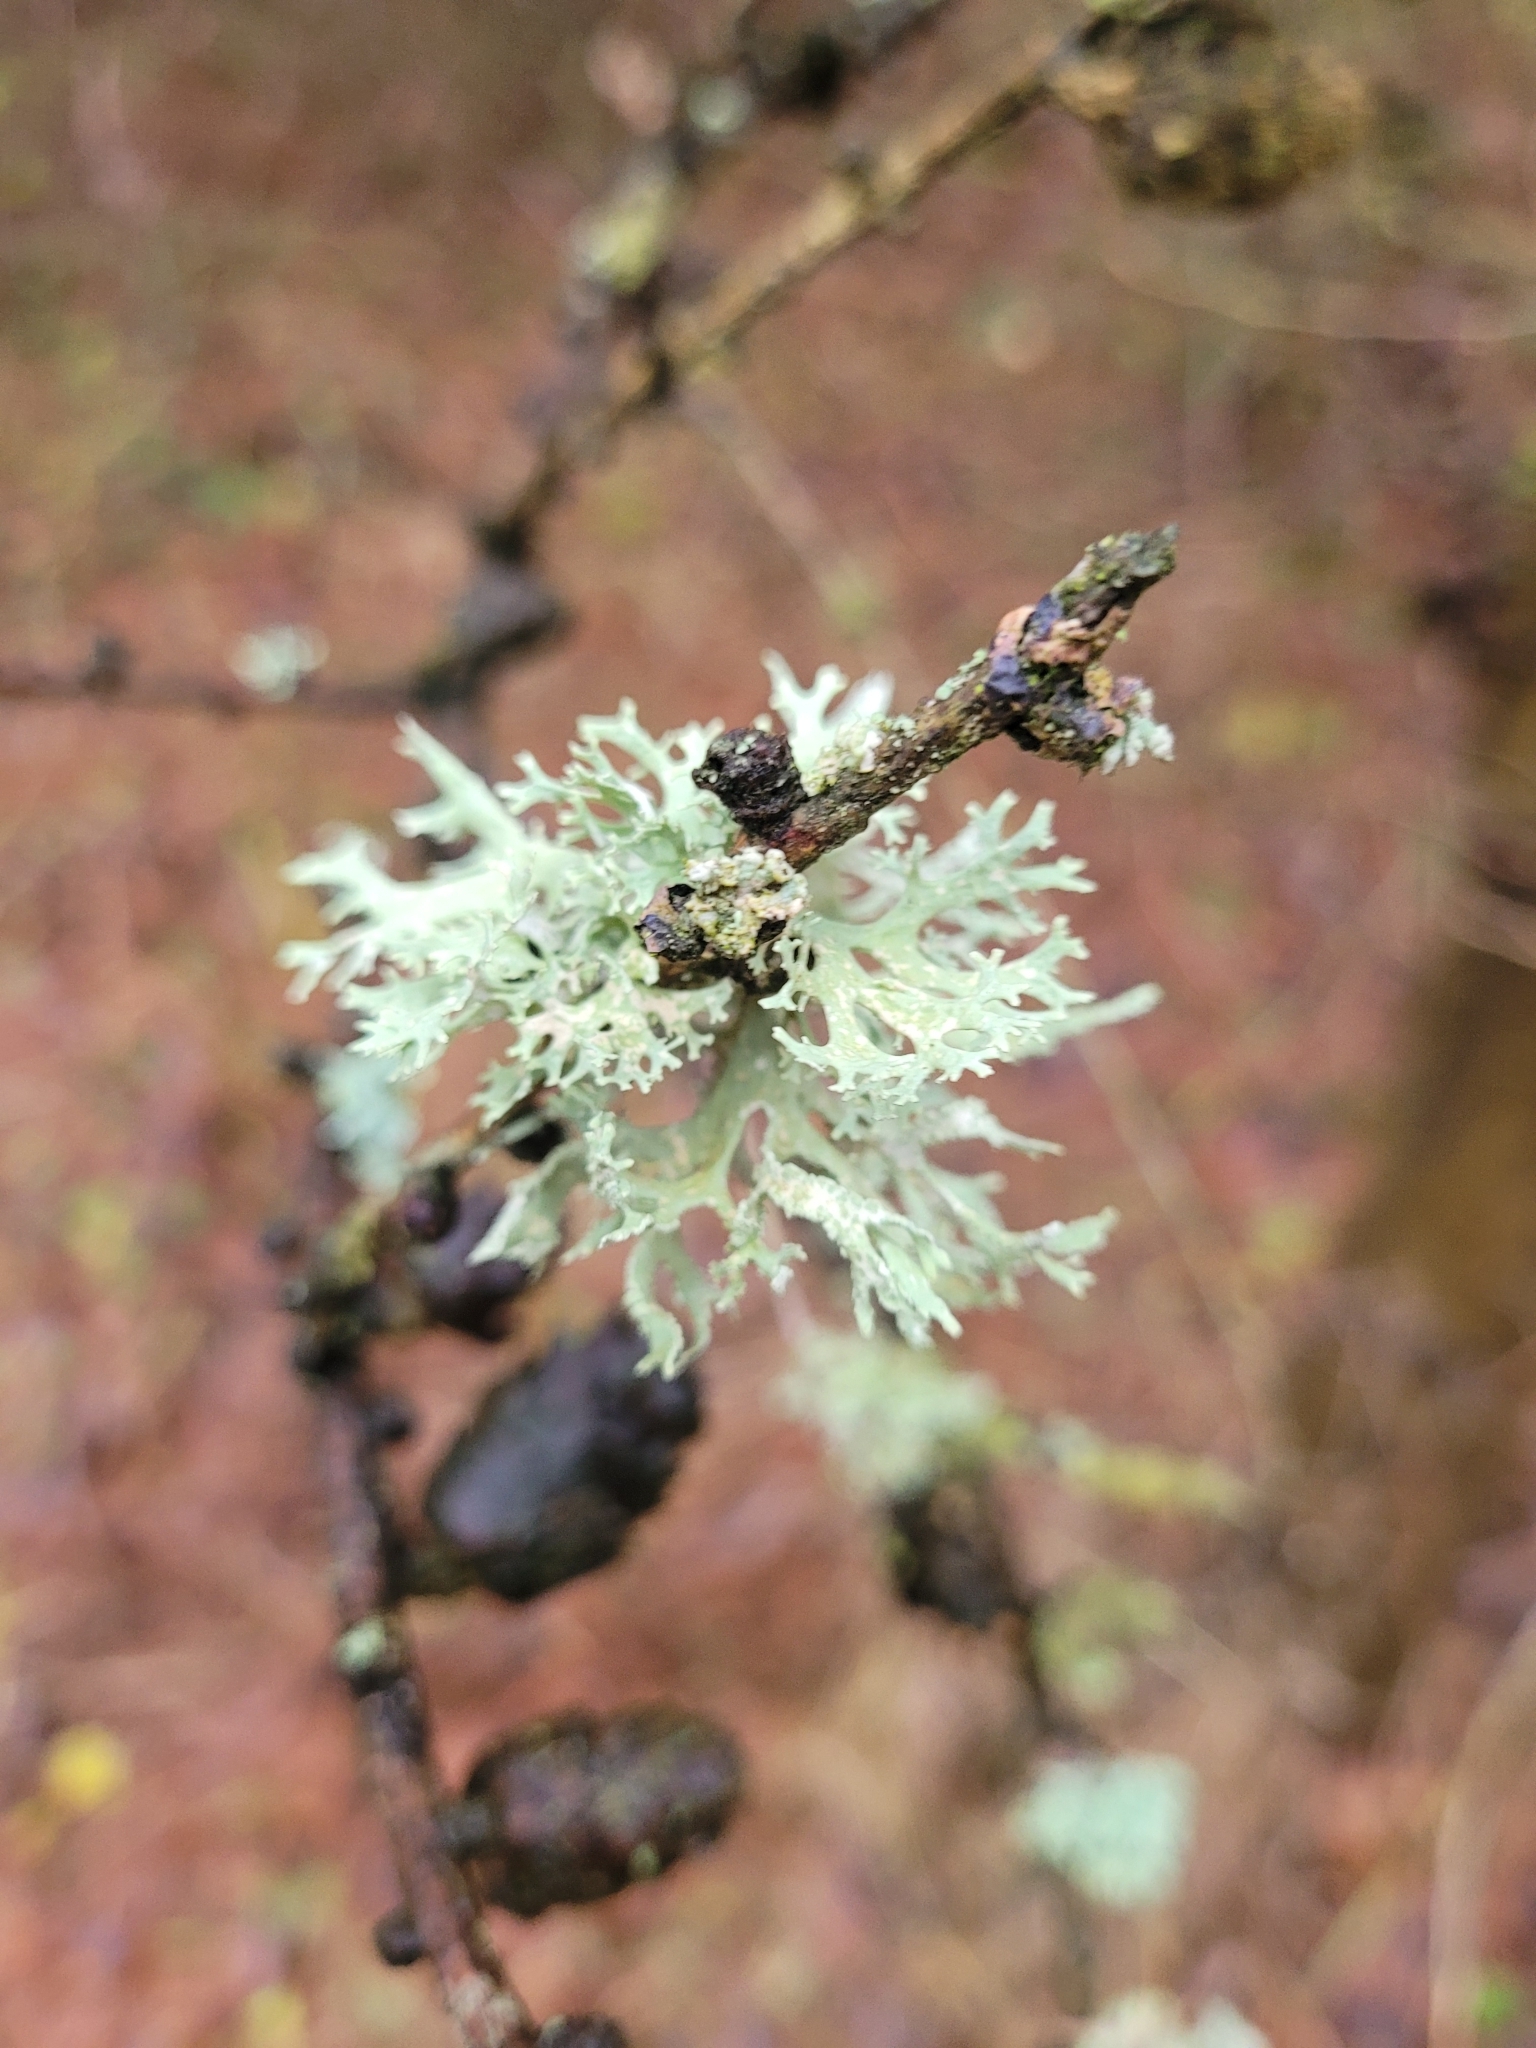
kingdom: Fungi
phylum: Ascomycota
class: Lecanoromycetes
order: Lecanorales
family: Parmeliaceae
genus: Evernia
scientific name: Evernia prunastri
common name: Oak moss
